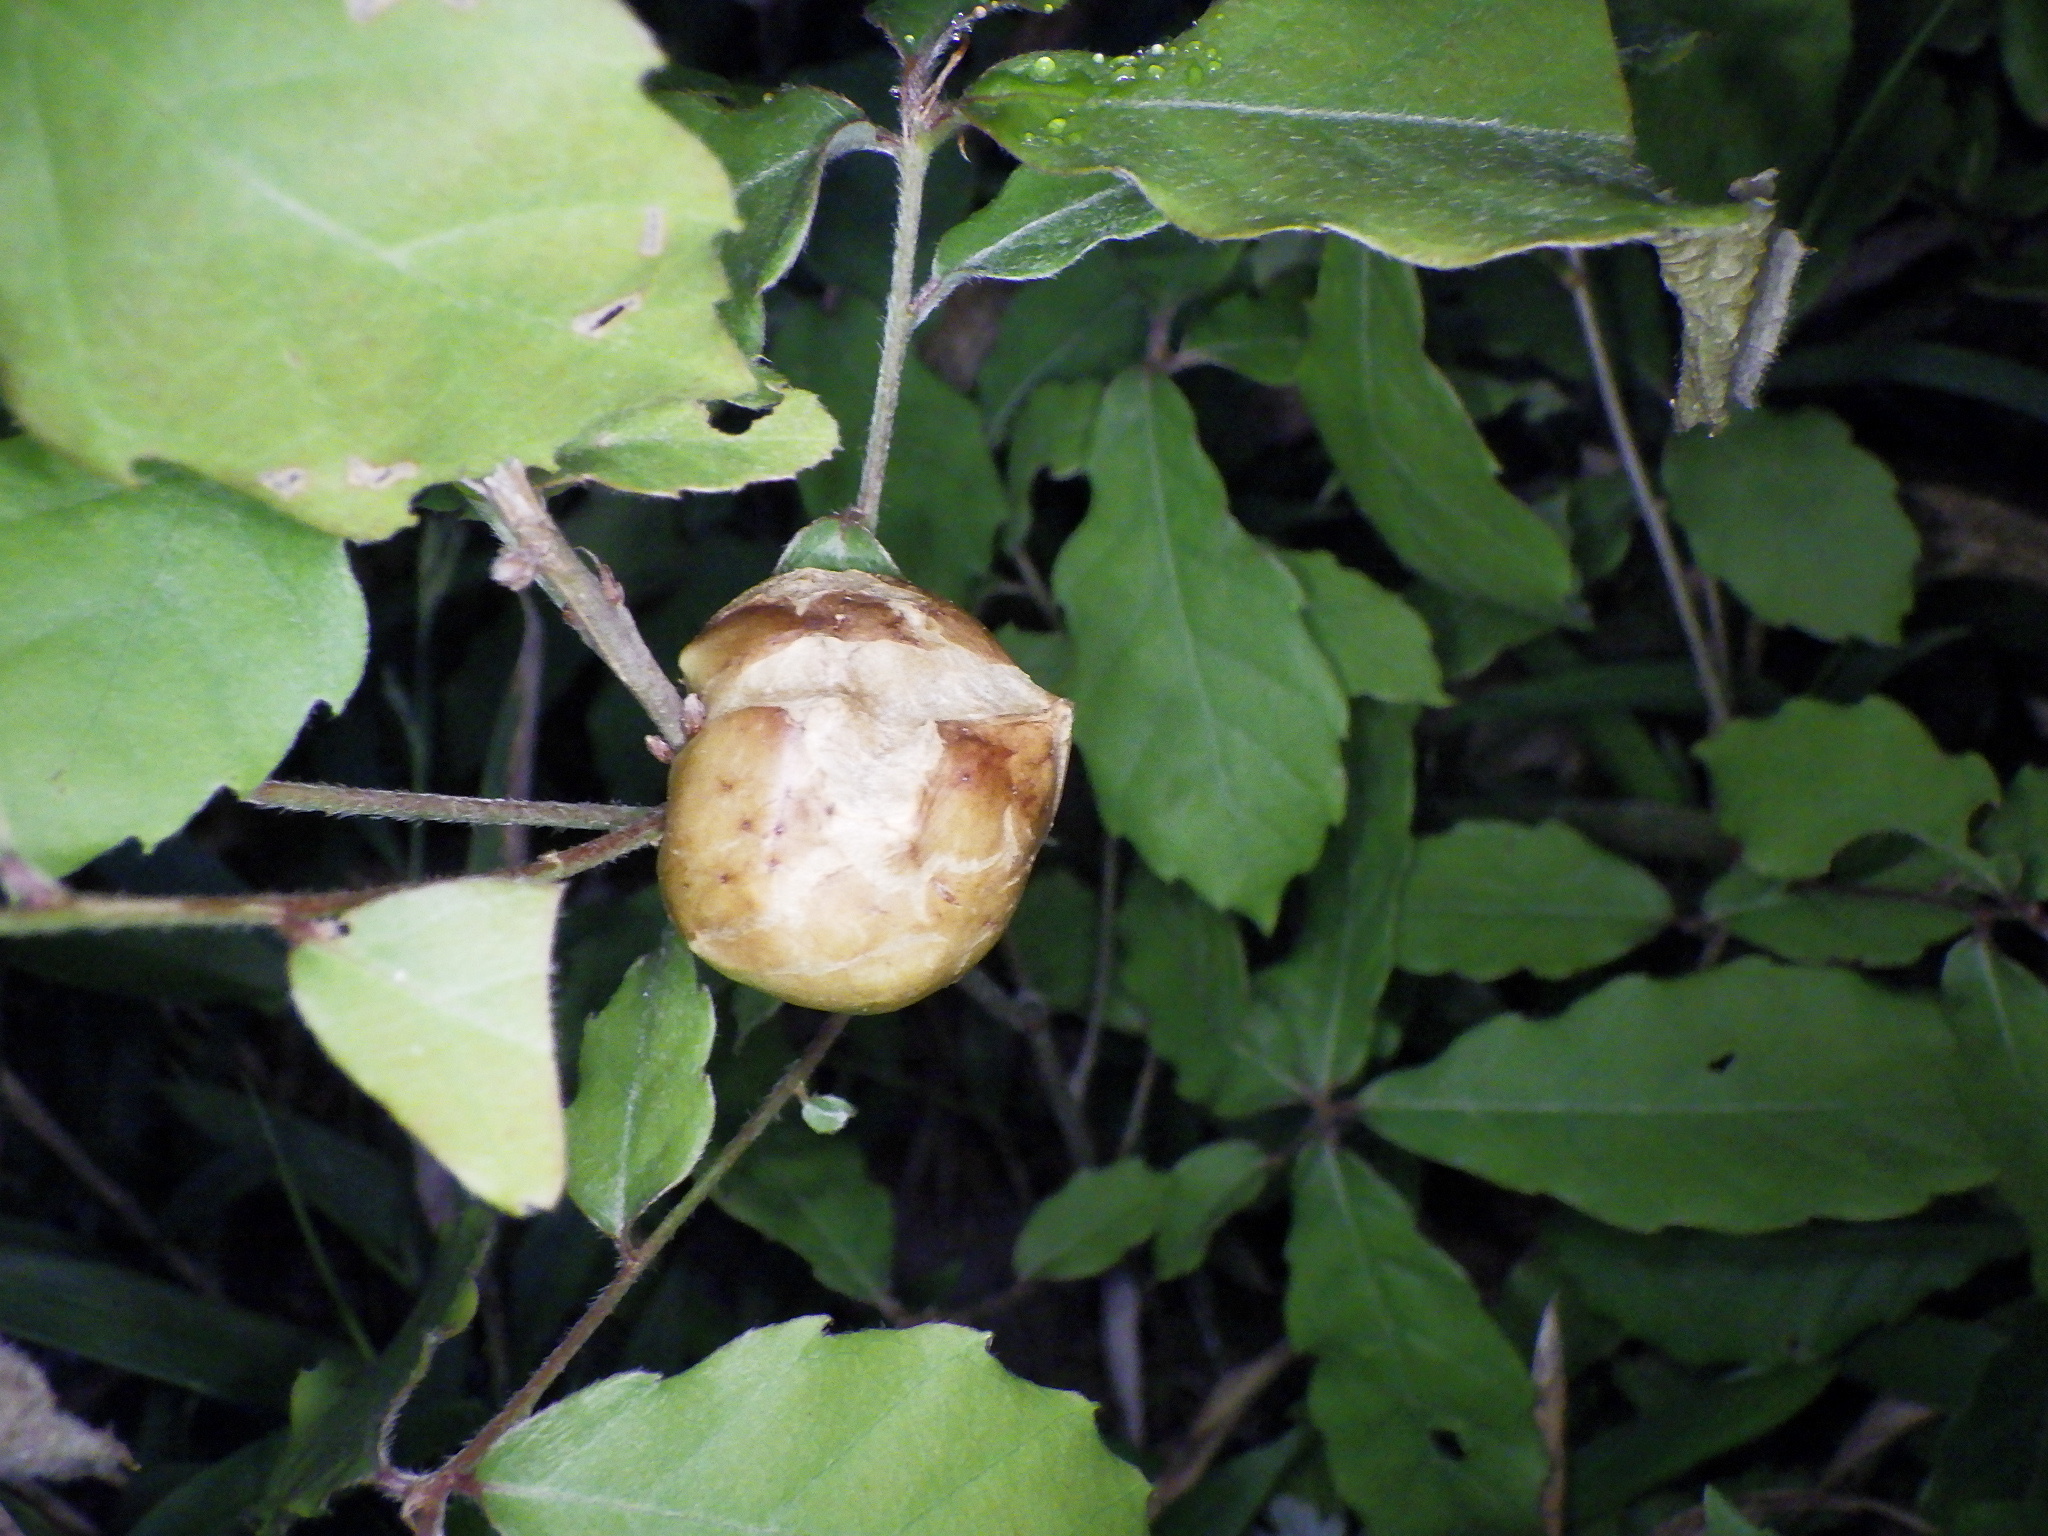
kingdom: Animalia
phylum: Arthropoda
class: Insecta
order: Hymenoptera
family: Cynipidae
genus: Biorhiza
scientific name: Biorhiza nawai
